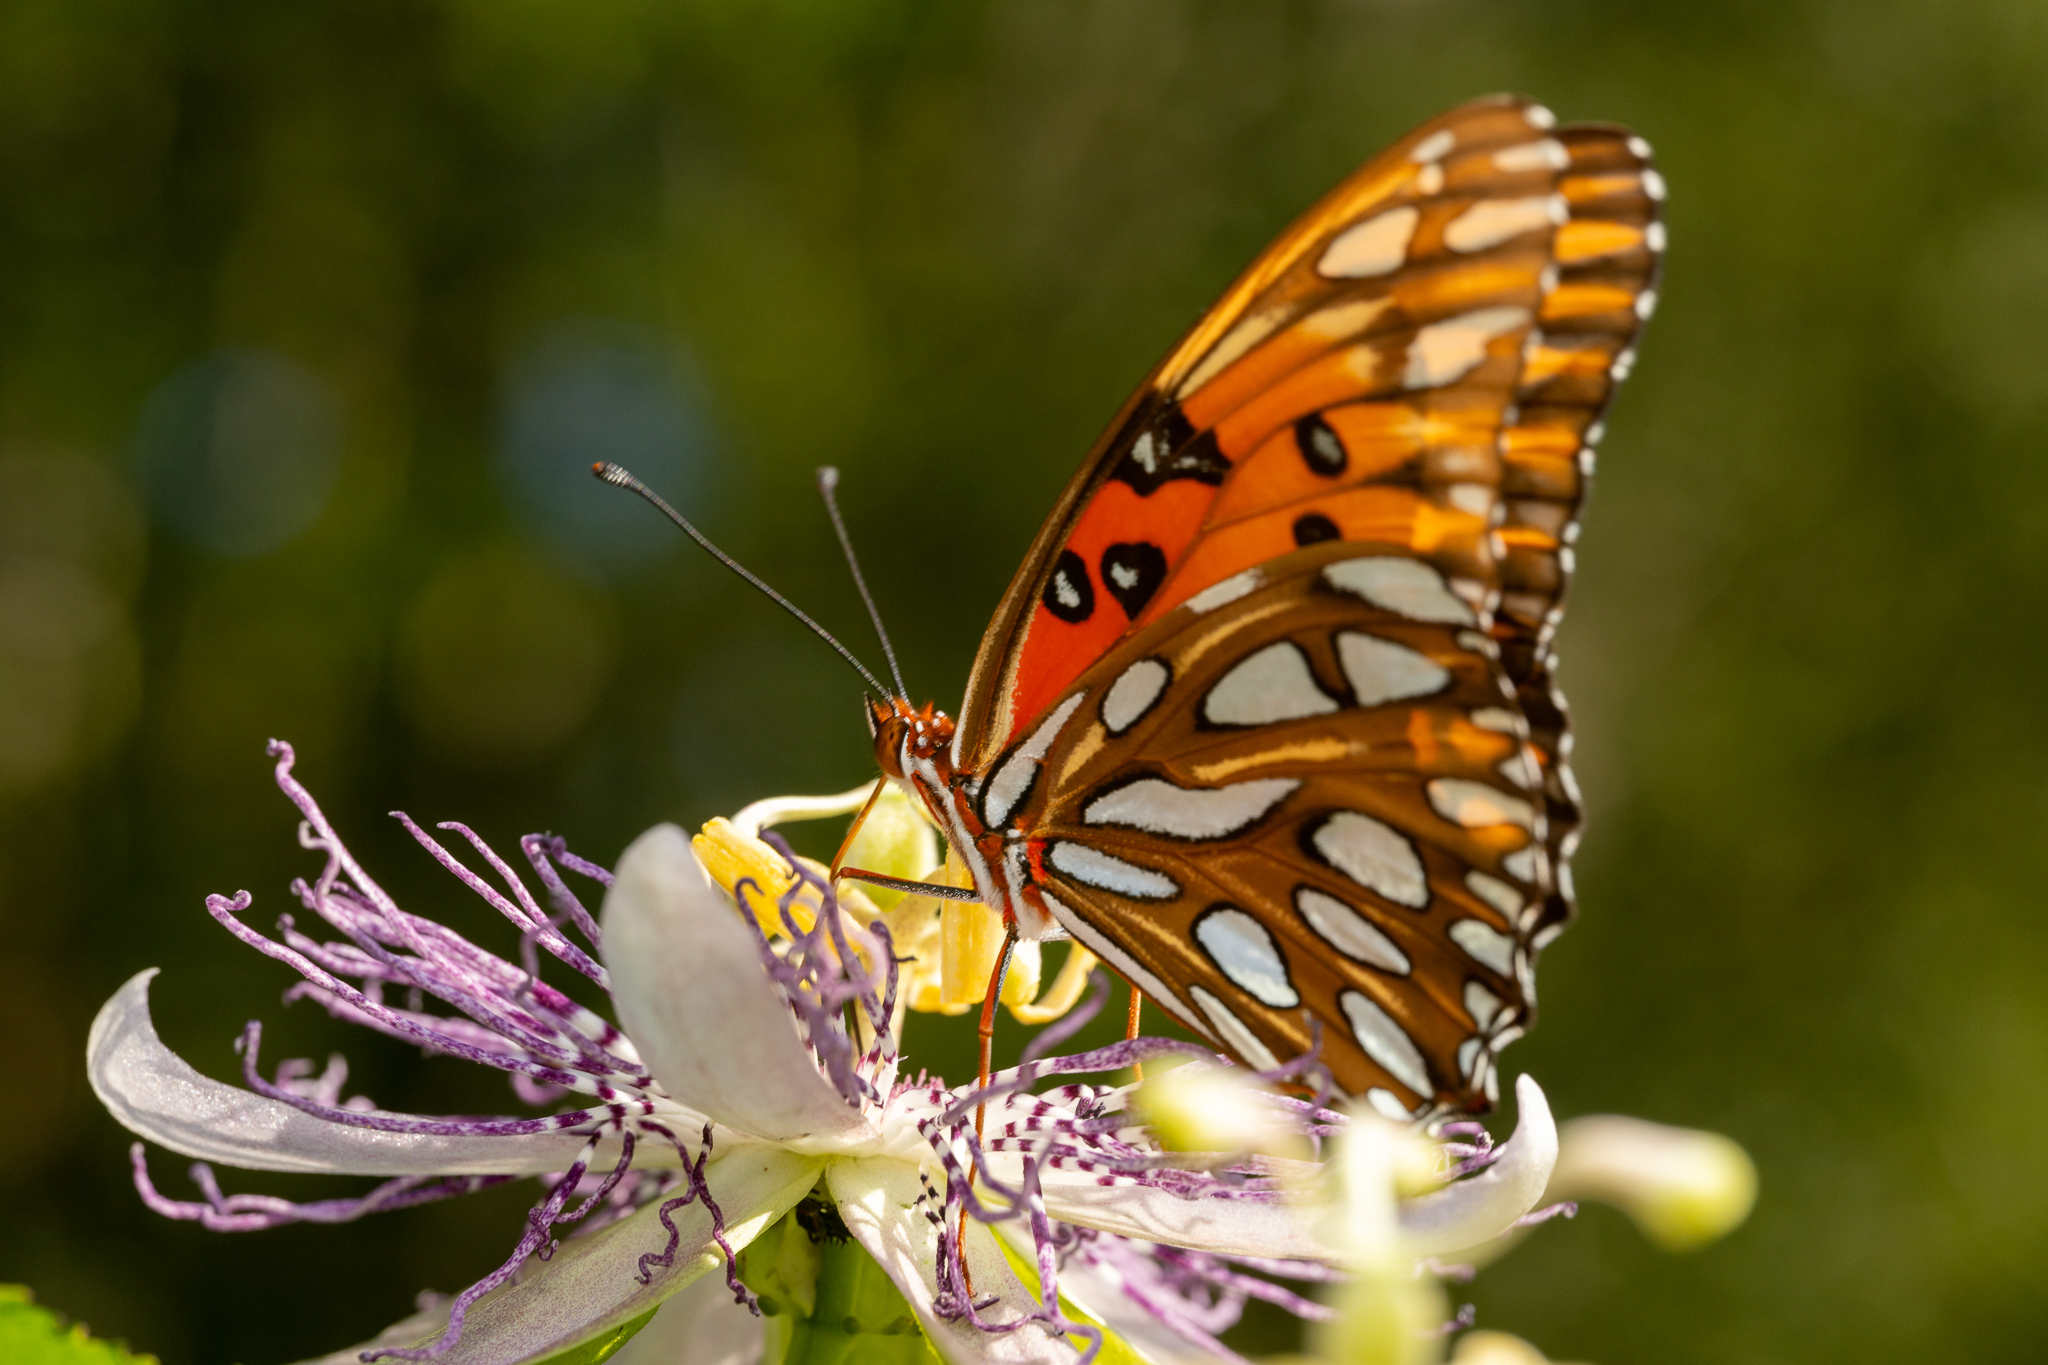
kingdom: Animalia
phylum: Arthropoda
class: Insecta
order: Lepidoptera
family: Nymphalidae
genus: Dione
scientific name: Dione vanillae
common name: Gulf fritillary
